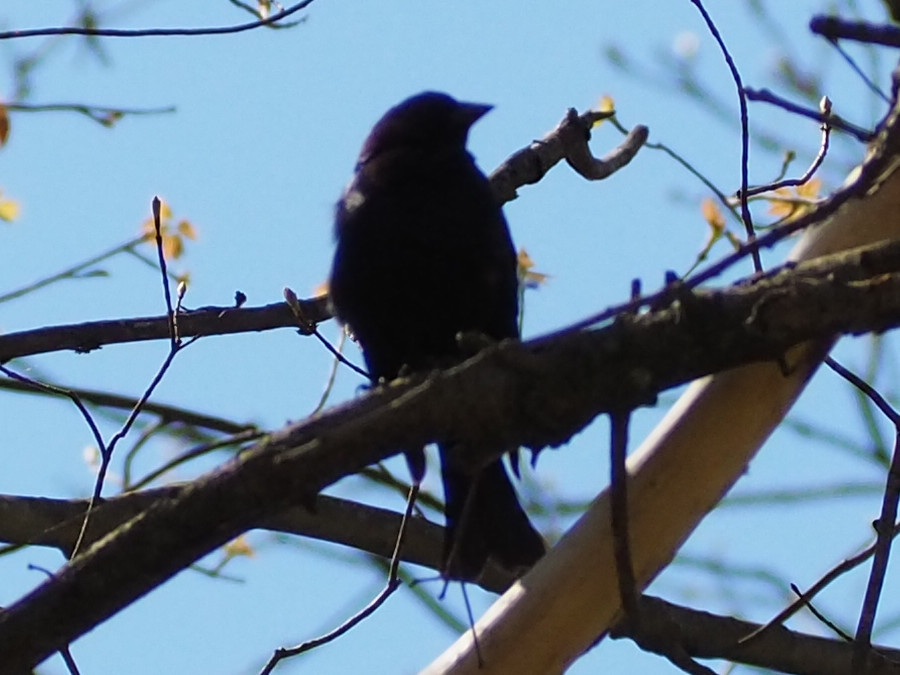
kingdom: Animalia
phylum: Chordata
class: Aves
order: Passeriformes
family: Icteridae
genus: Molothrus
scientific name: Molothrus ater
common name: Brown-headed cowbird
